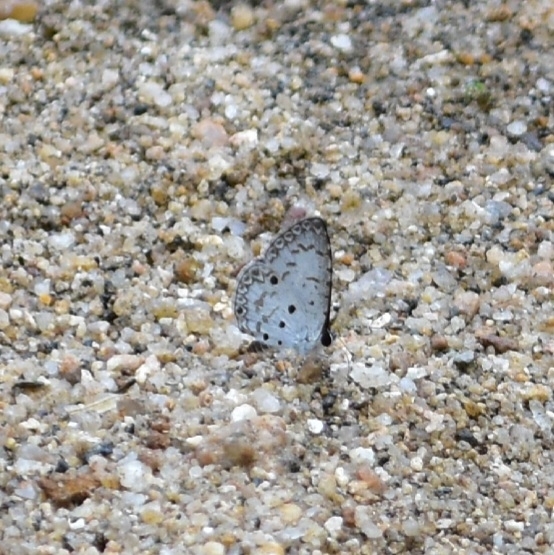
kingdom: Animalia
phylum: Arthropoda
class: Insecta
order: Lepidoptera
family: Lycaenidae
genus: Megisba
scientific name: Megisba malaya
